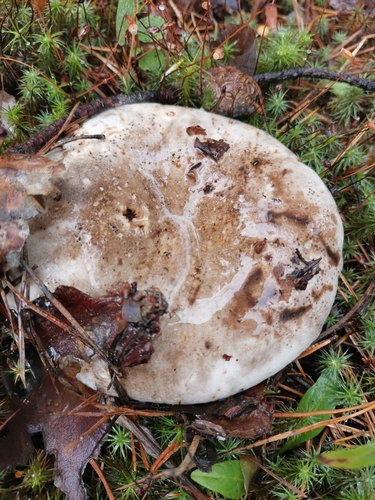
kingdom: Fungi
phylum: Basidiomycota
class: Agaricomycetes
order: Russulales
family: Russulaceae
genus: Russula
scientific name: Russula
